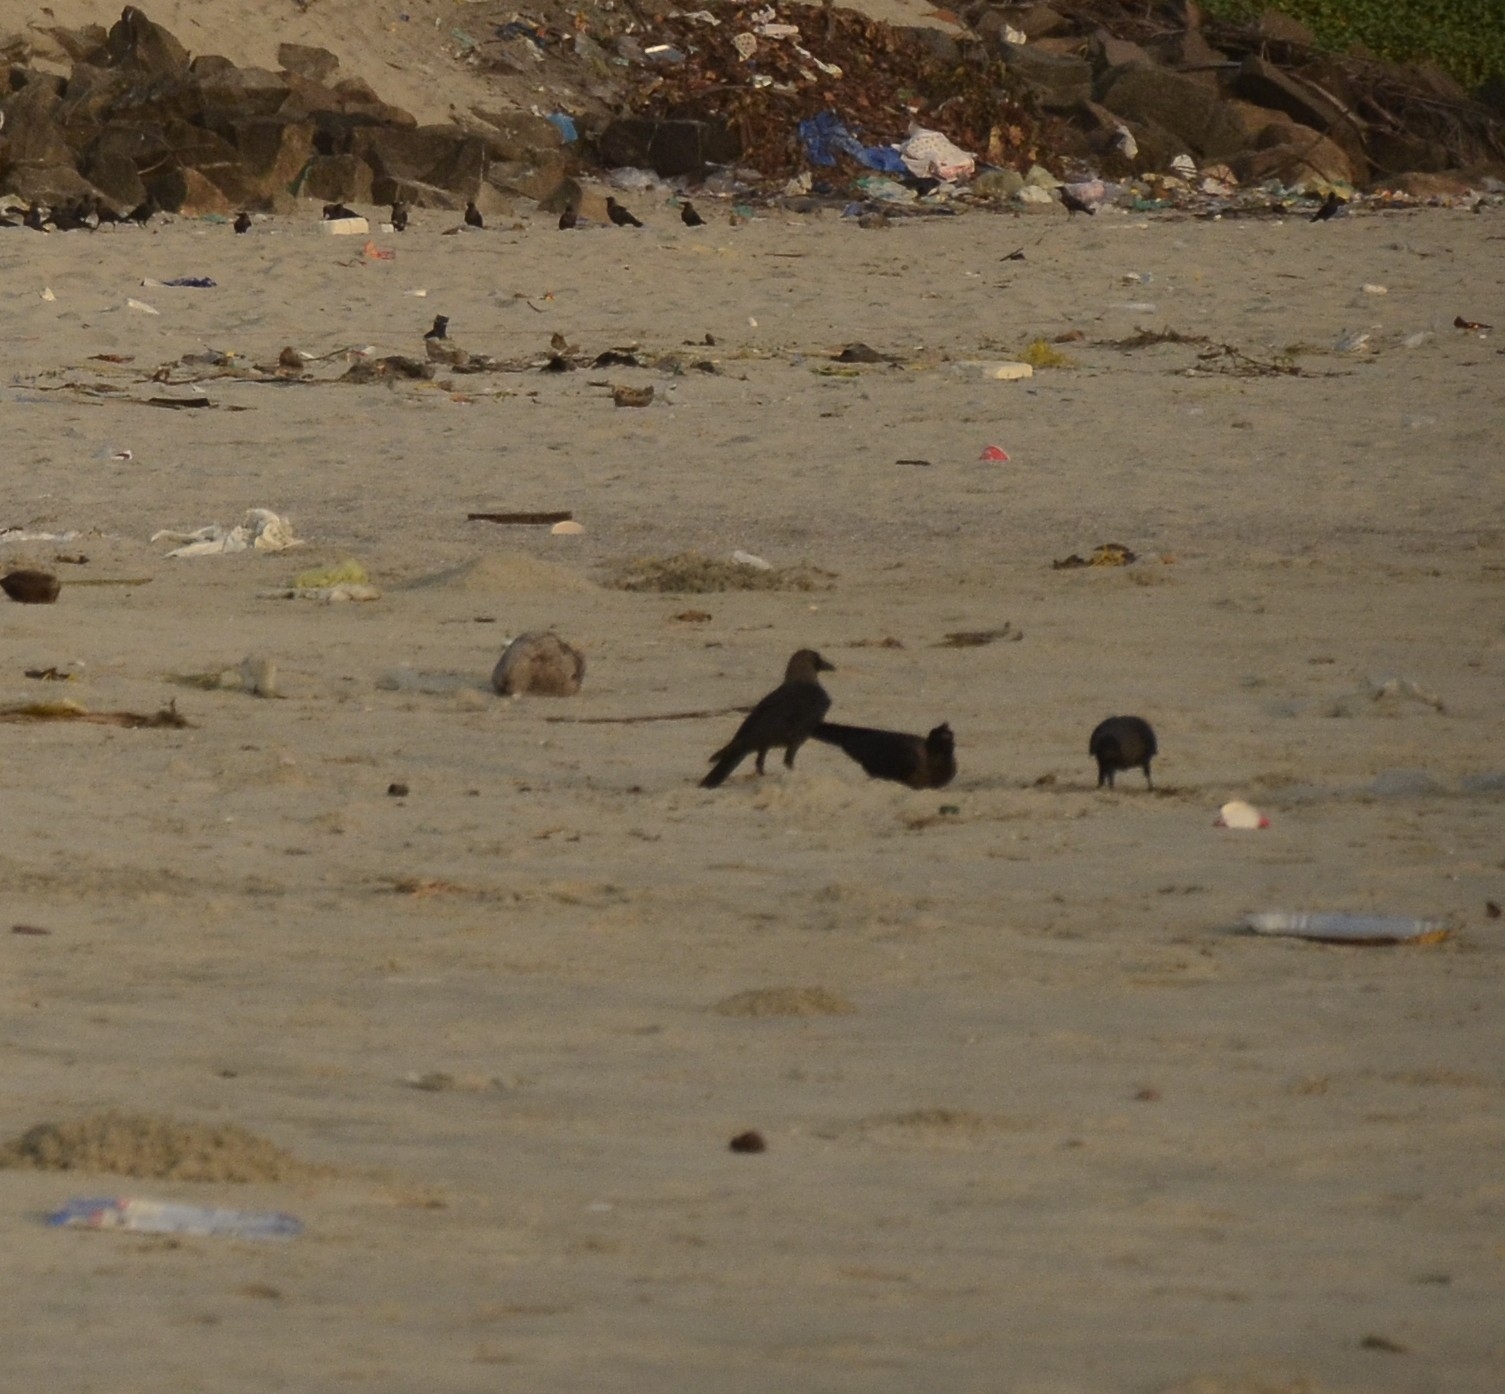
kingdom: Animalia
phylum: Chordata
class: Aves
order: Passeriformes
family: Corvidae
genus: Corvus
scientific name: Corvus splendens
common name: House crow
